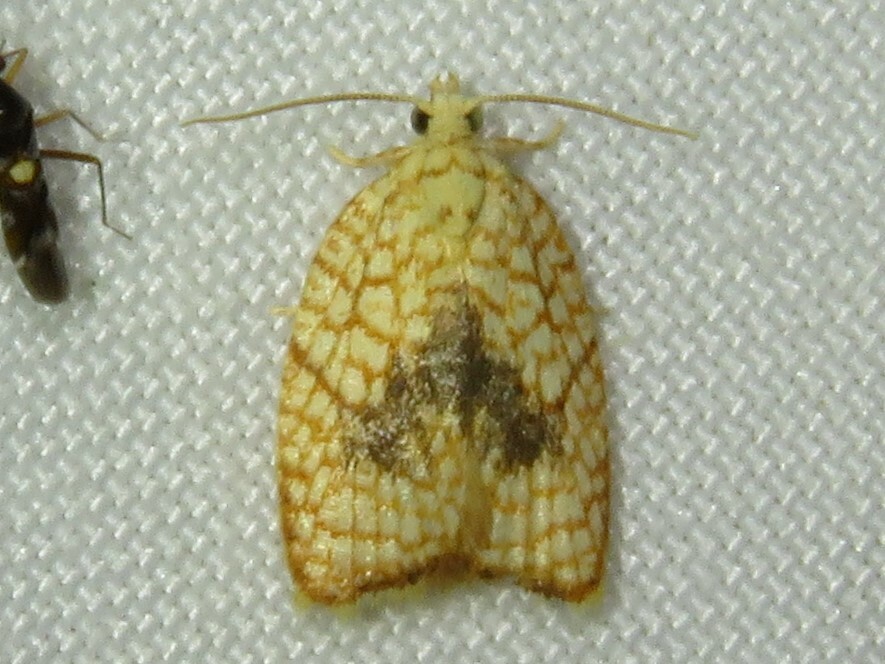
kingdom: Animalia
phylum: Arthropoda
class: Insecta
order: Lepidoptera
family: Tortricidae
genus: Acleris
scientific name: Acleris forsskaleana
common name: Maple button
